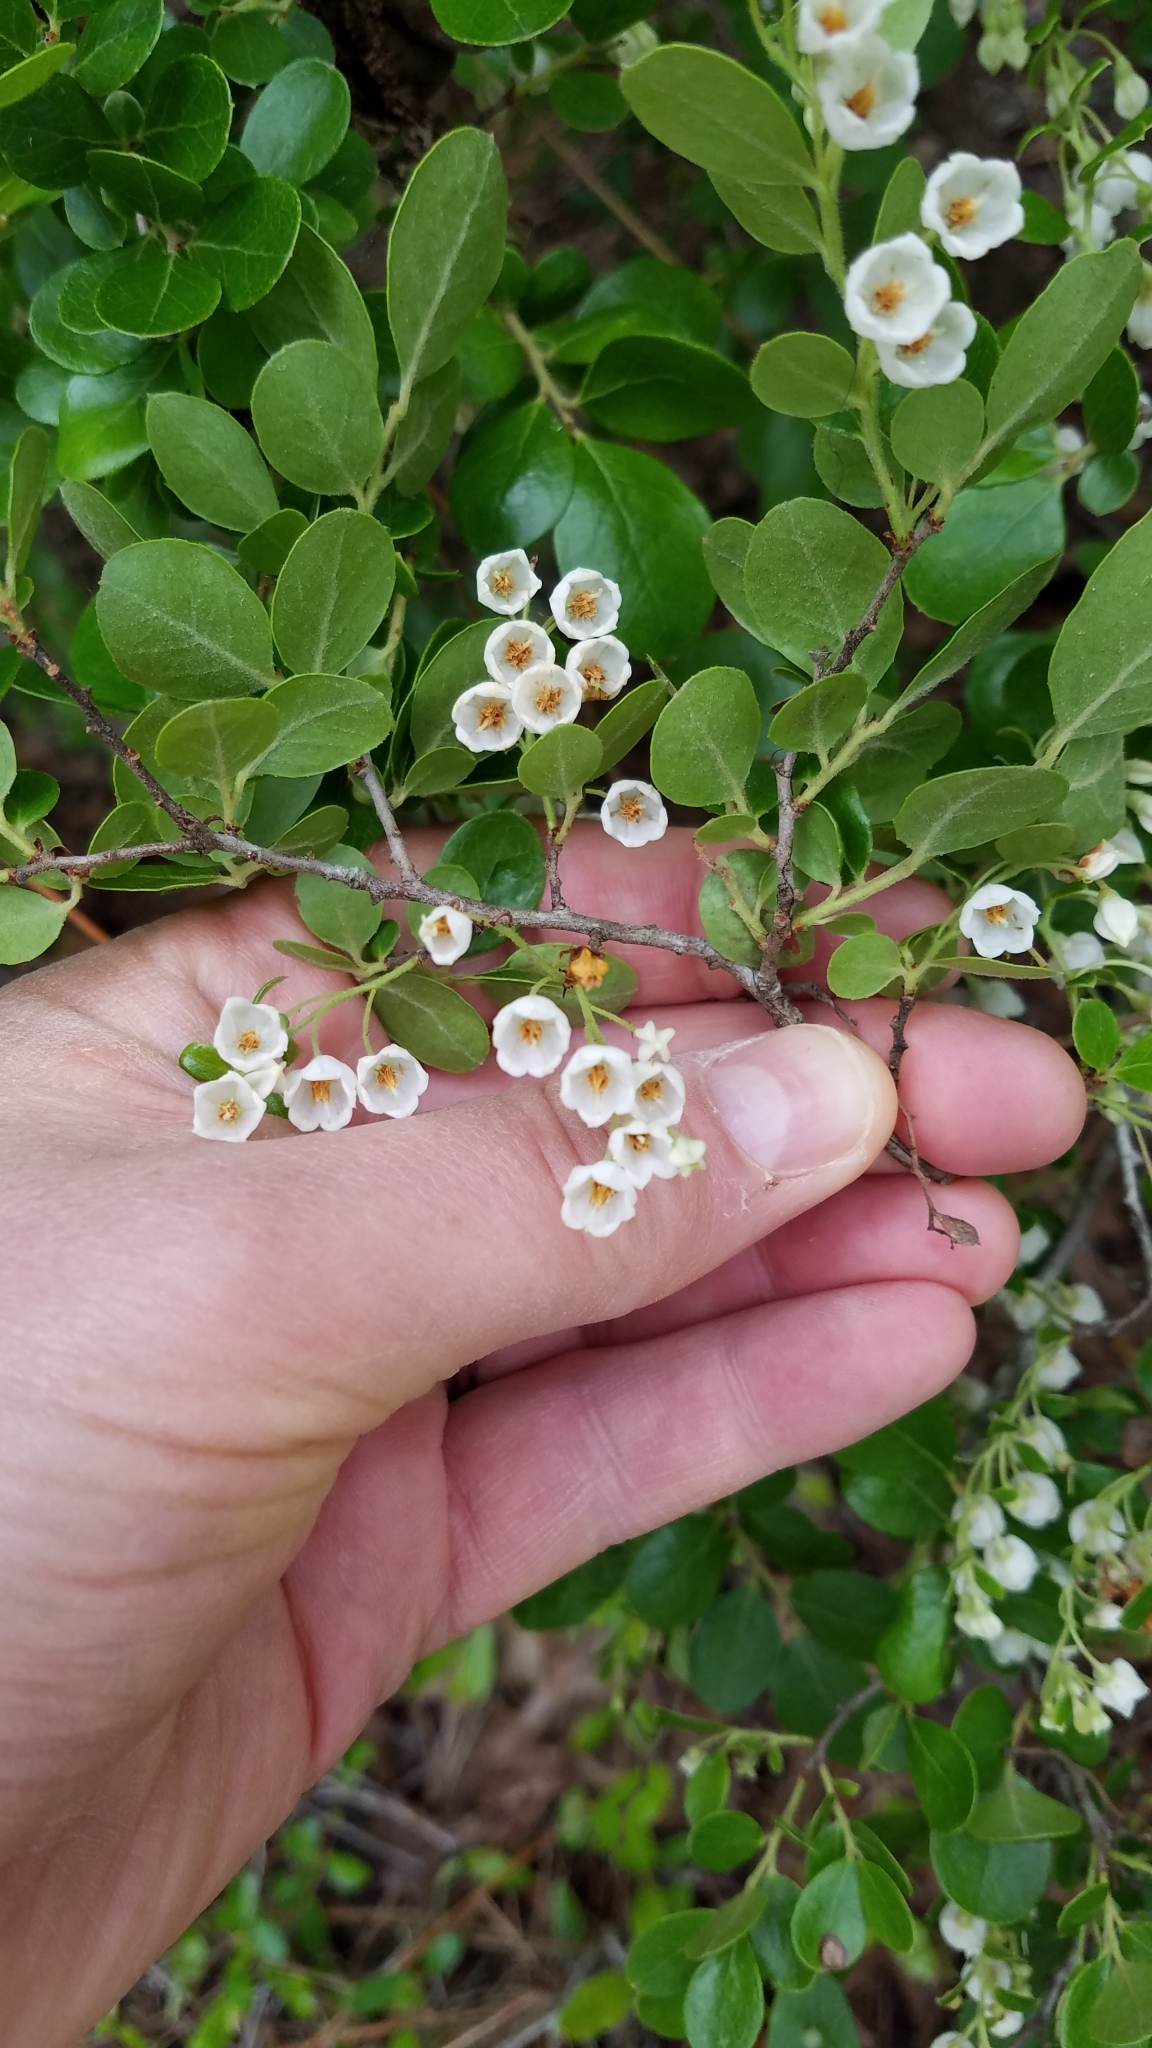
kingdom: Plantae
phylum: Tracheophyta
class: Magnoliopsida
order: Ericales
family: Ericaceae
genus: Vaccinium
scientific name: Vaccinium arboreum
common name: Farkleberry
